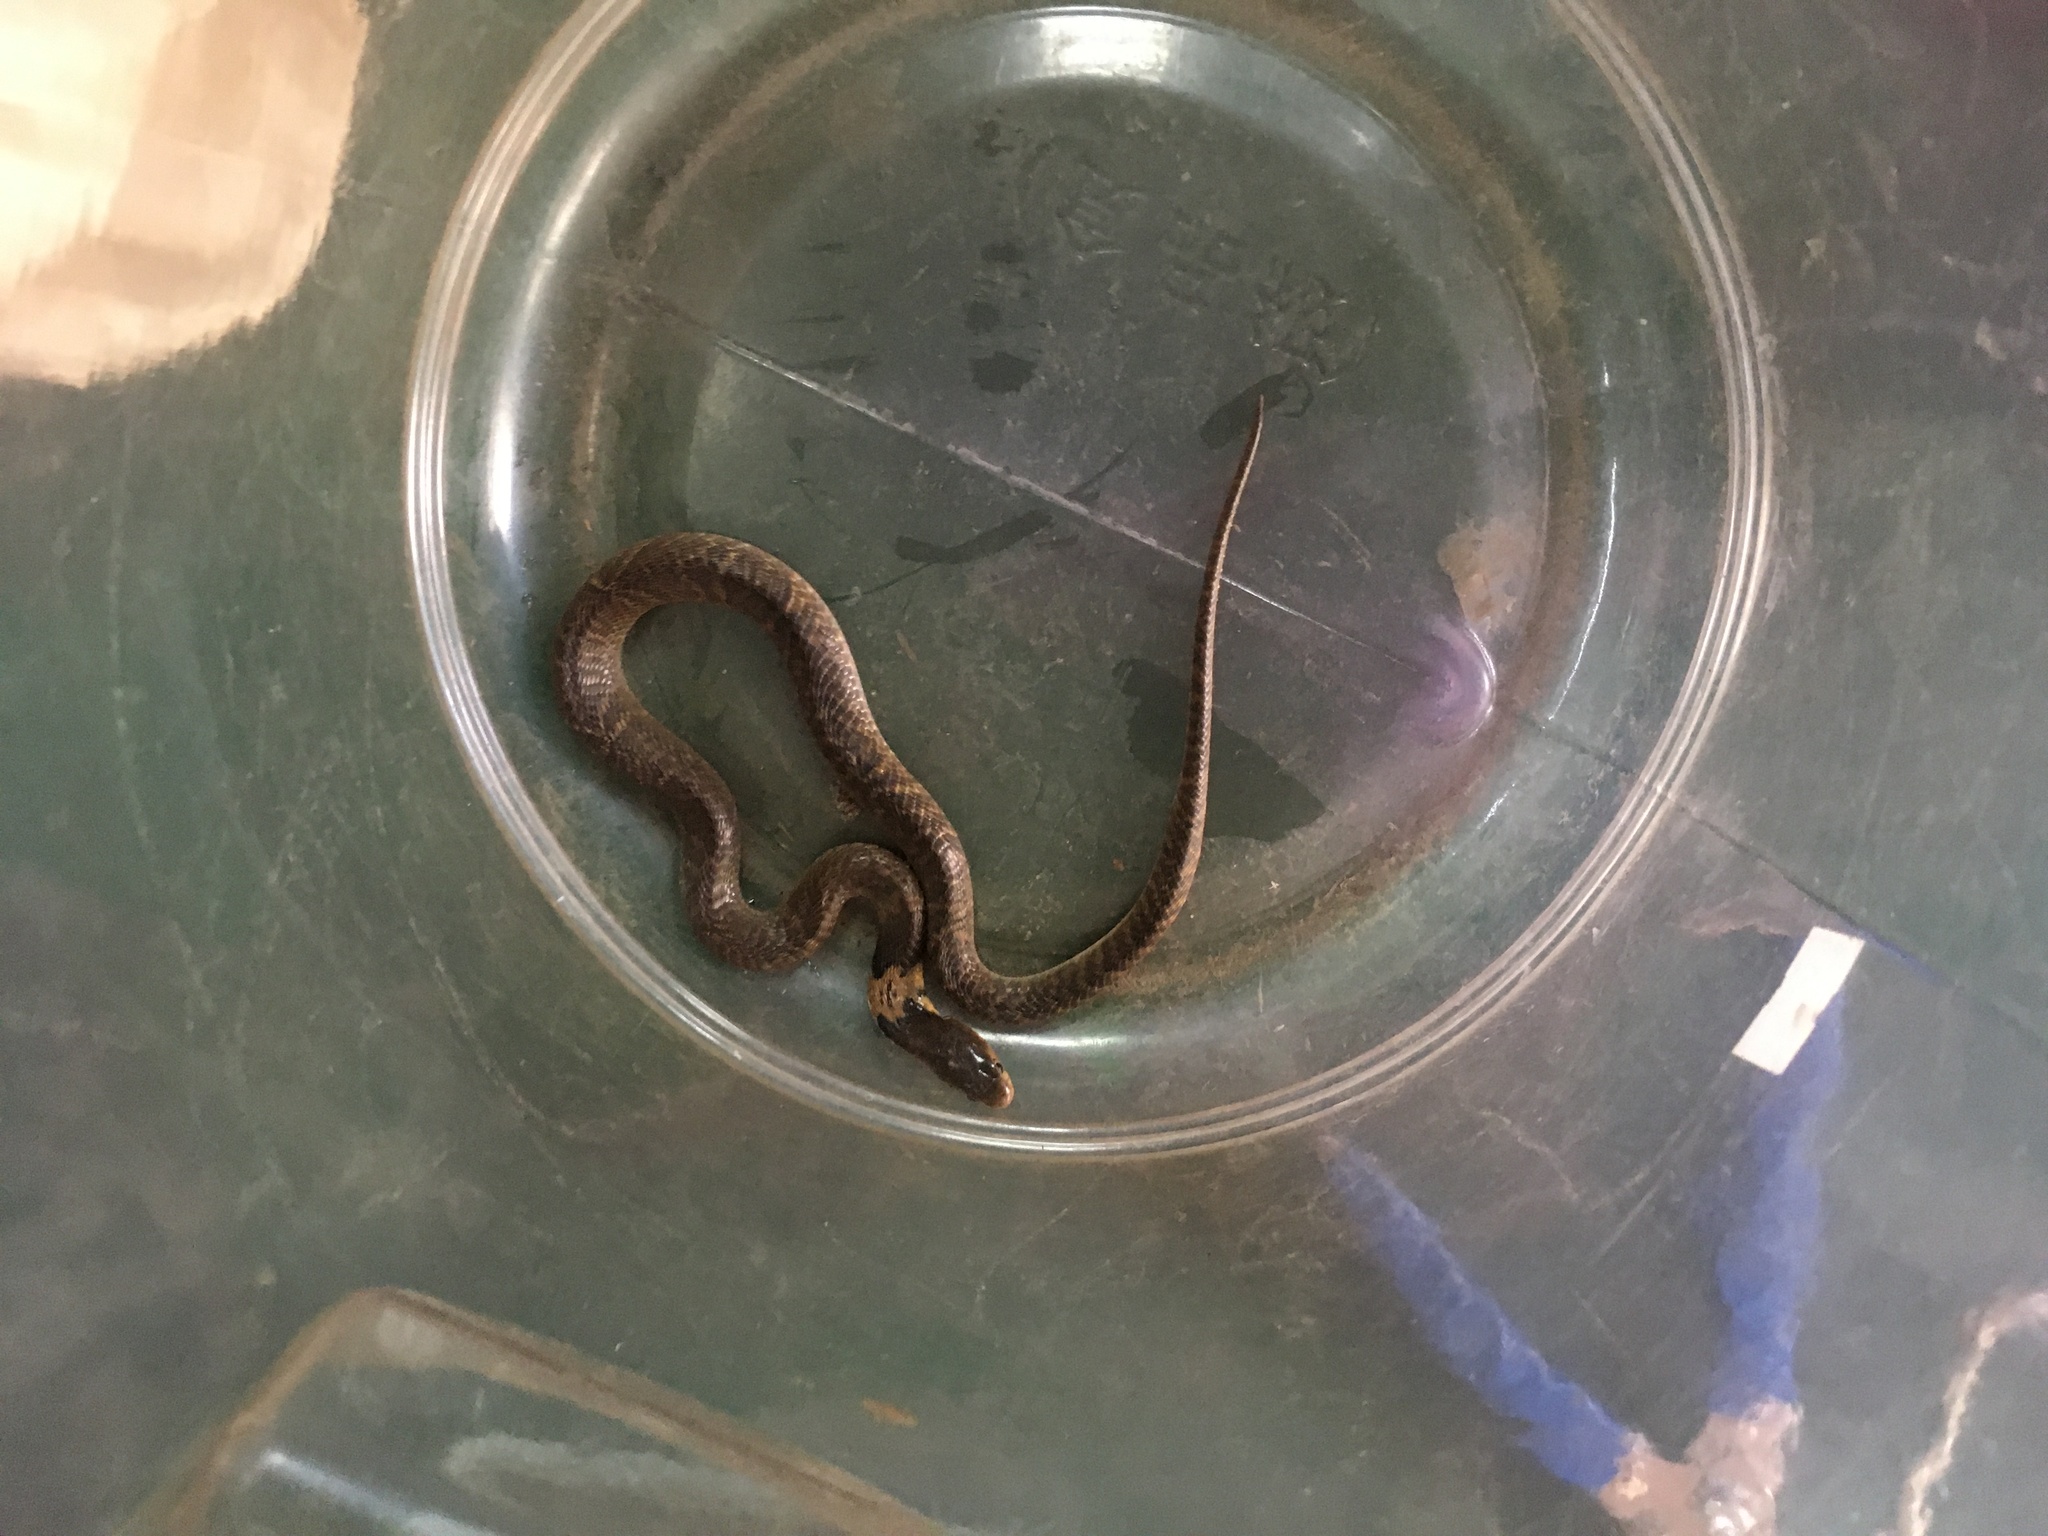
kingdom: Animalia
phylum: Chordata
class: Squamata
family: Elapidae
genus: Naja
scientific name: Naja atra
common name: Chinese cobra
